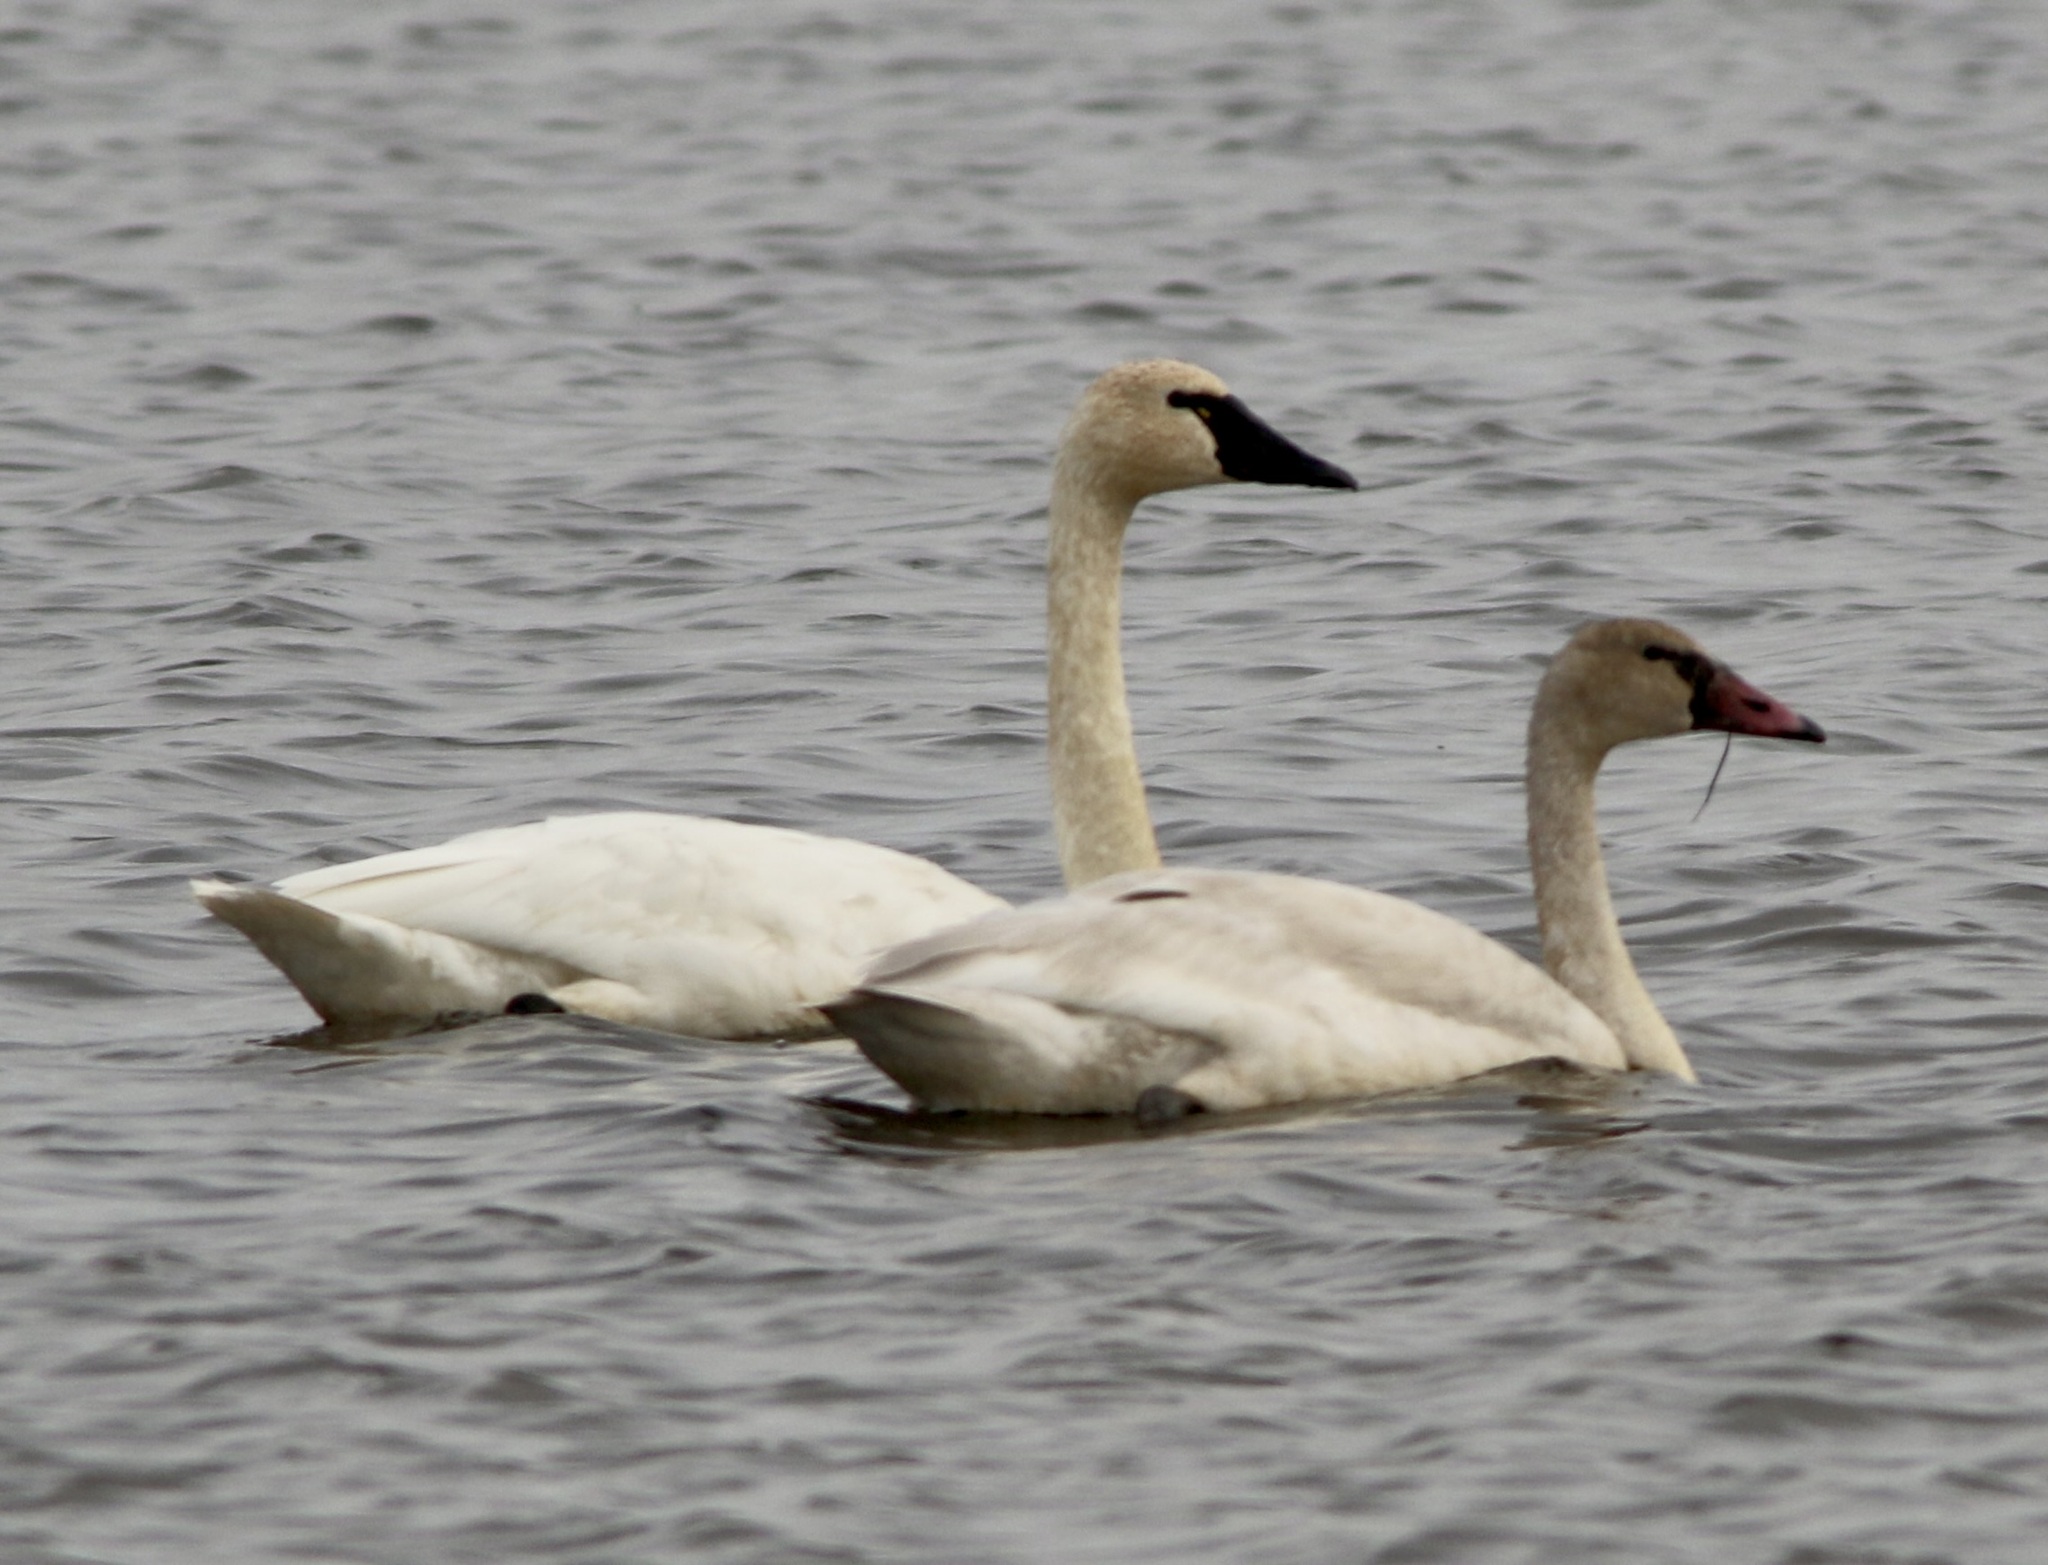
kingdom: Animalia
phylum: Chordata
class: Aves
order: Anseriformes
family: Anatidae
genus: Cygnus
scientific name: Cygnus columbianus
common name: Tundra swan
